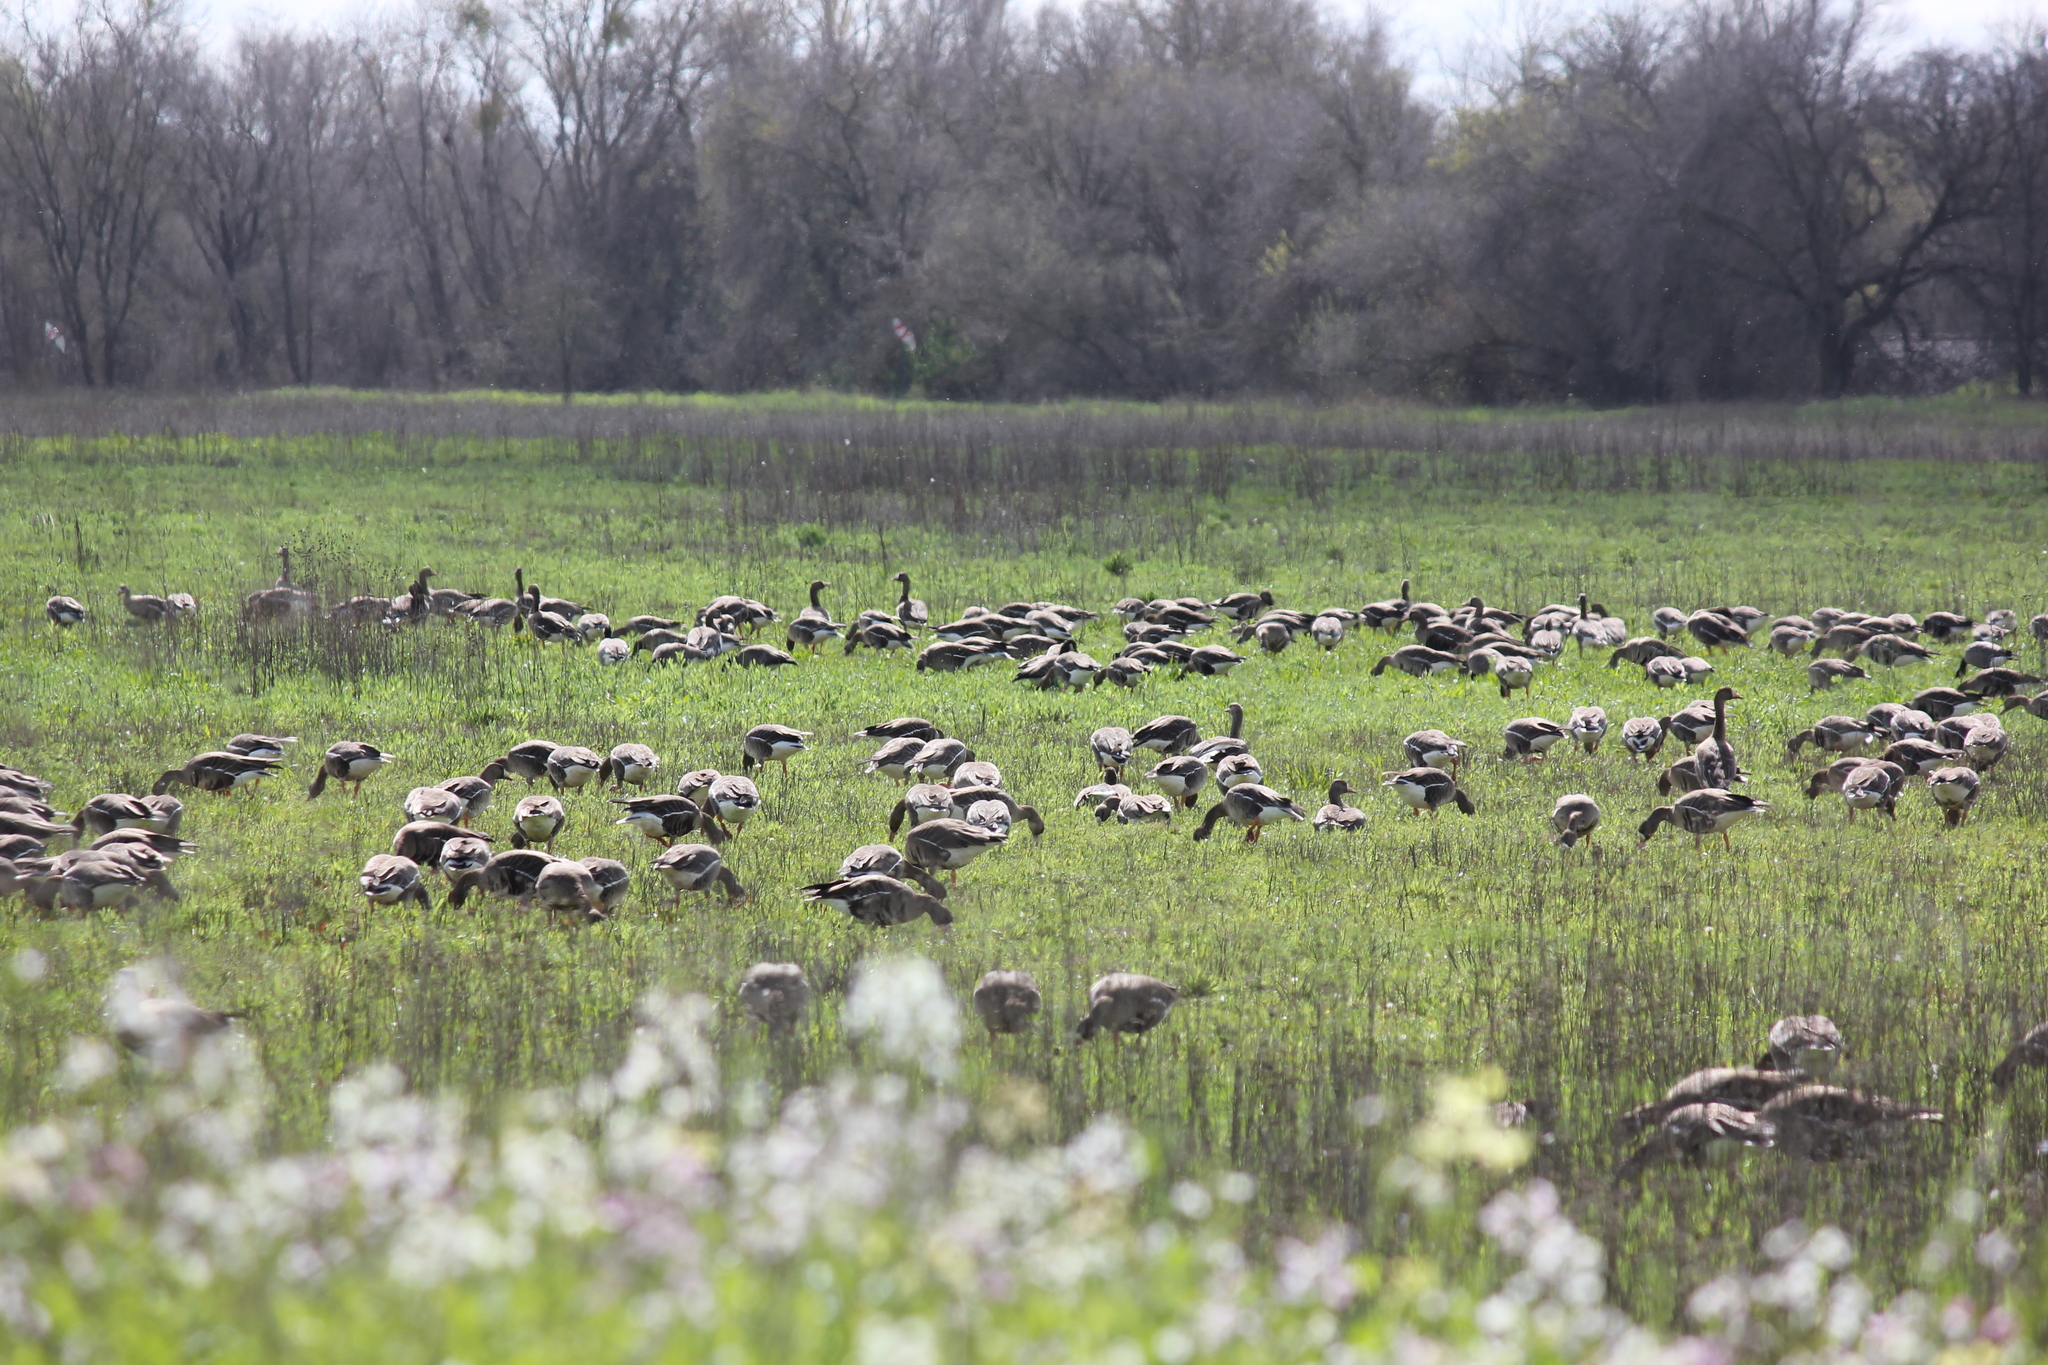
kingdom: Animalia
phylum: Chordata
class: Aves
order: Anseriformes
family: Anatidae
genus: Anser
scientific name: Anser albifrons
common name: Greater white-fronted goose
